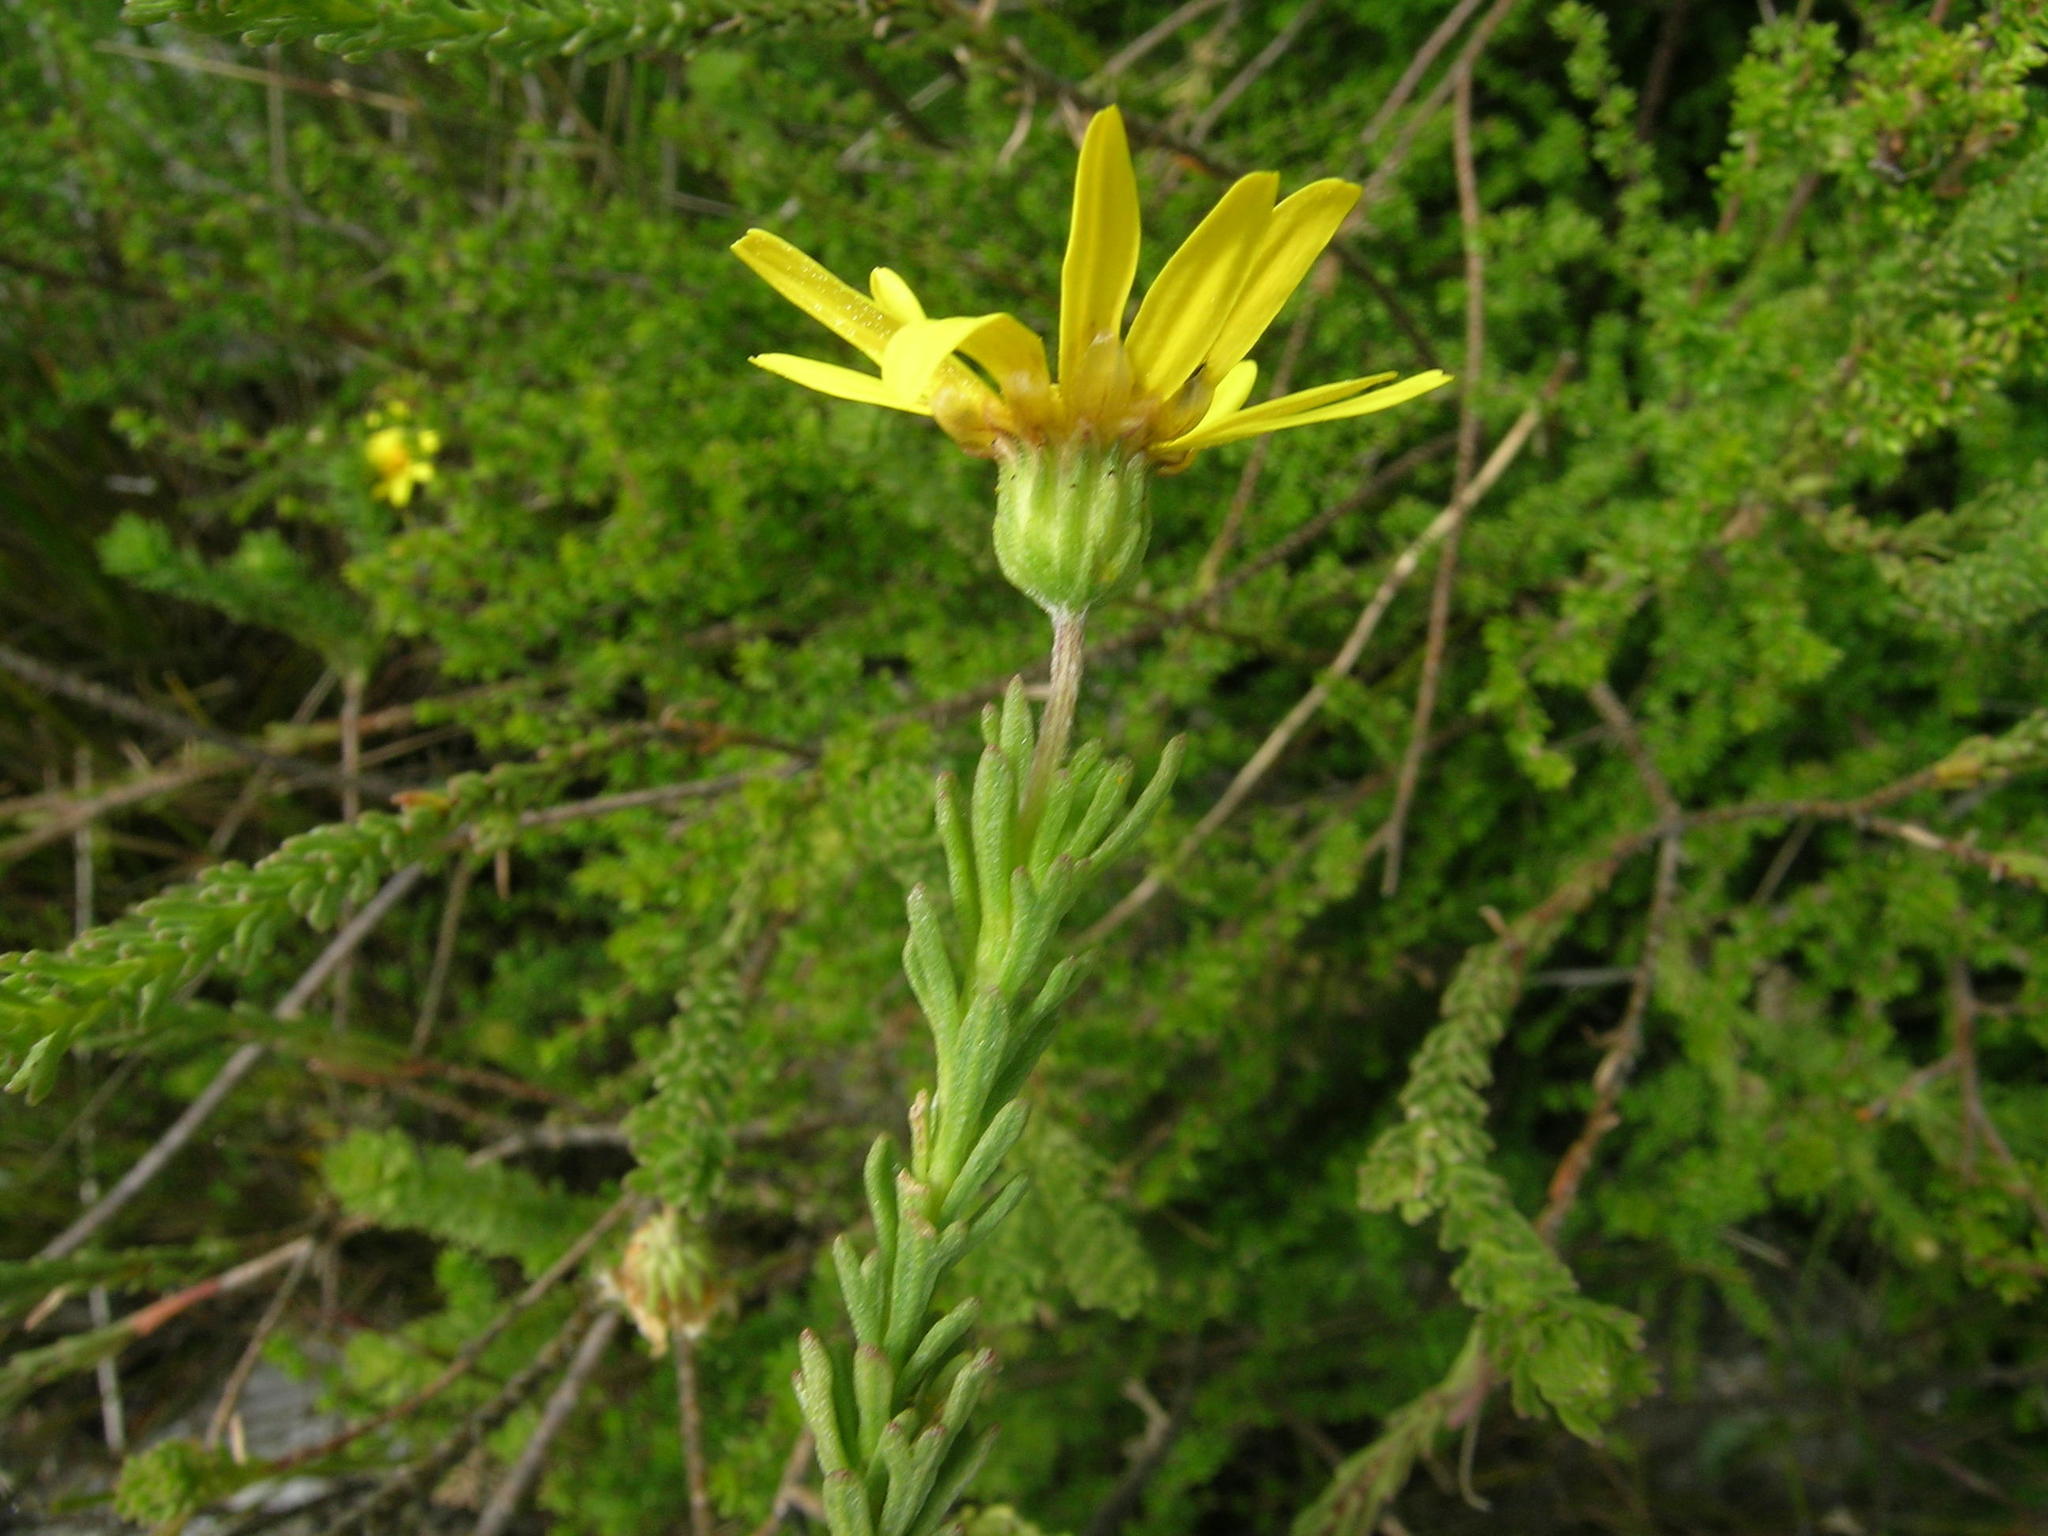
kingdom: Plantae
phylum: Tracheophyta
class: Magnoliopsida
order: Asterales
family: Asteraceae
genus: Ursinia
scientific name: Ursinia trifida
